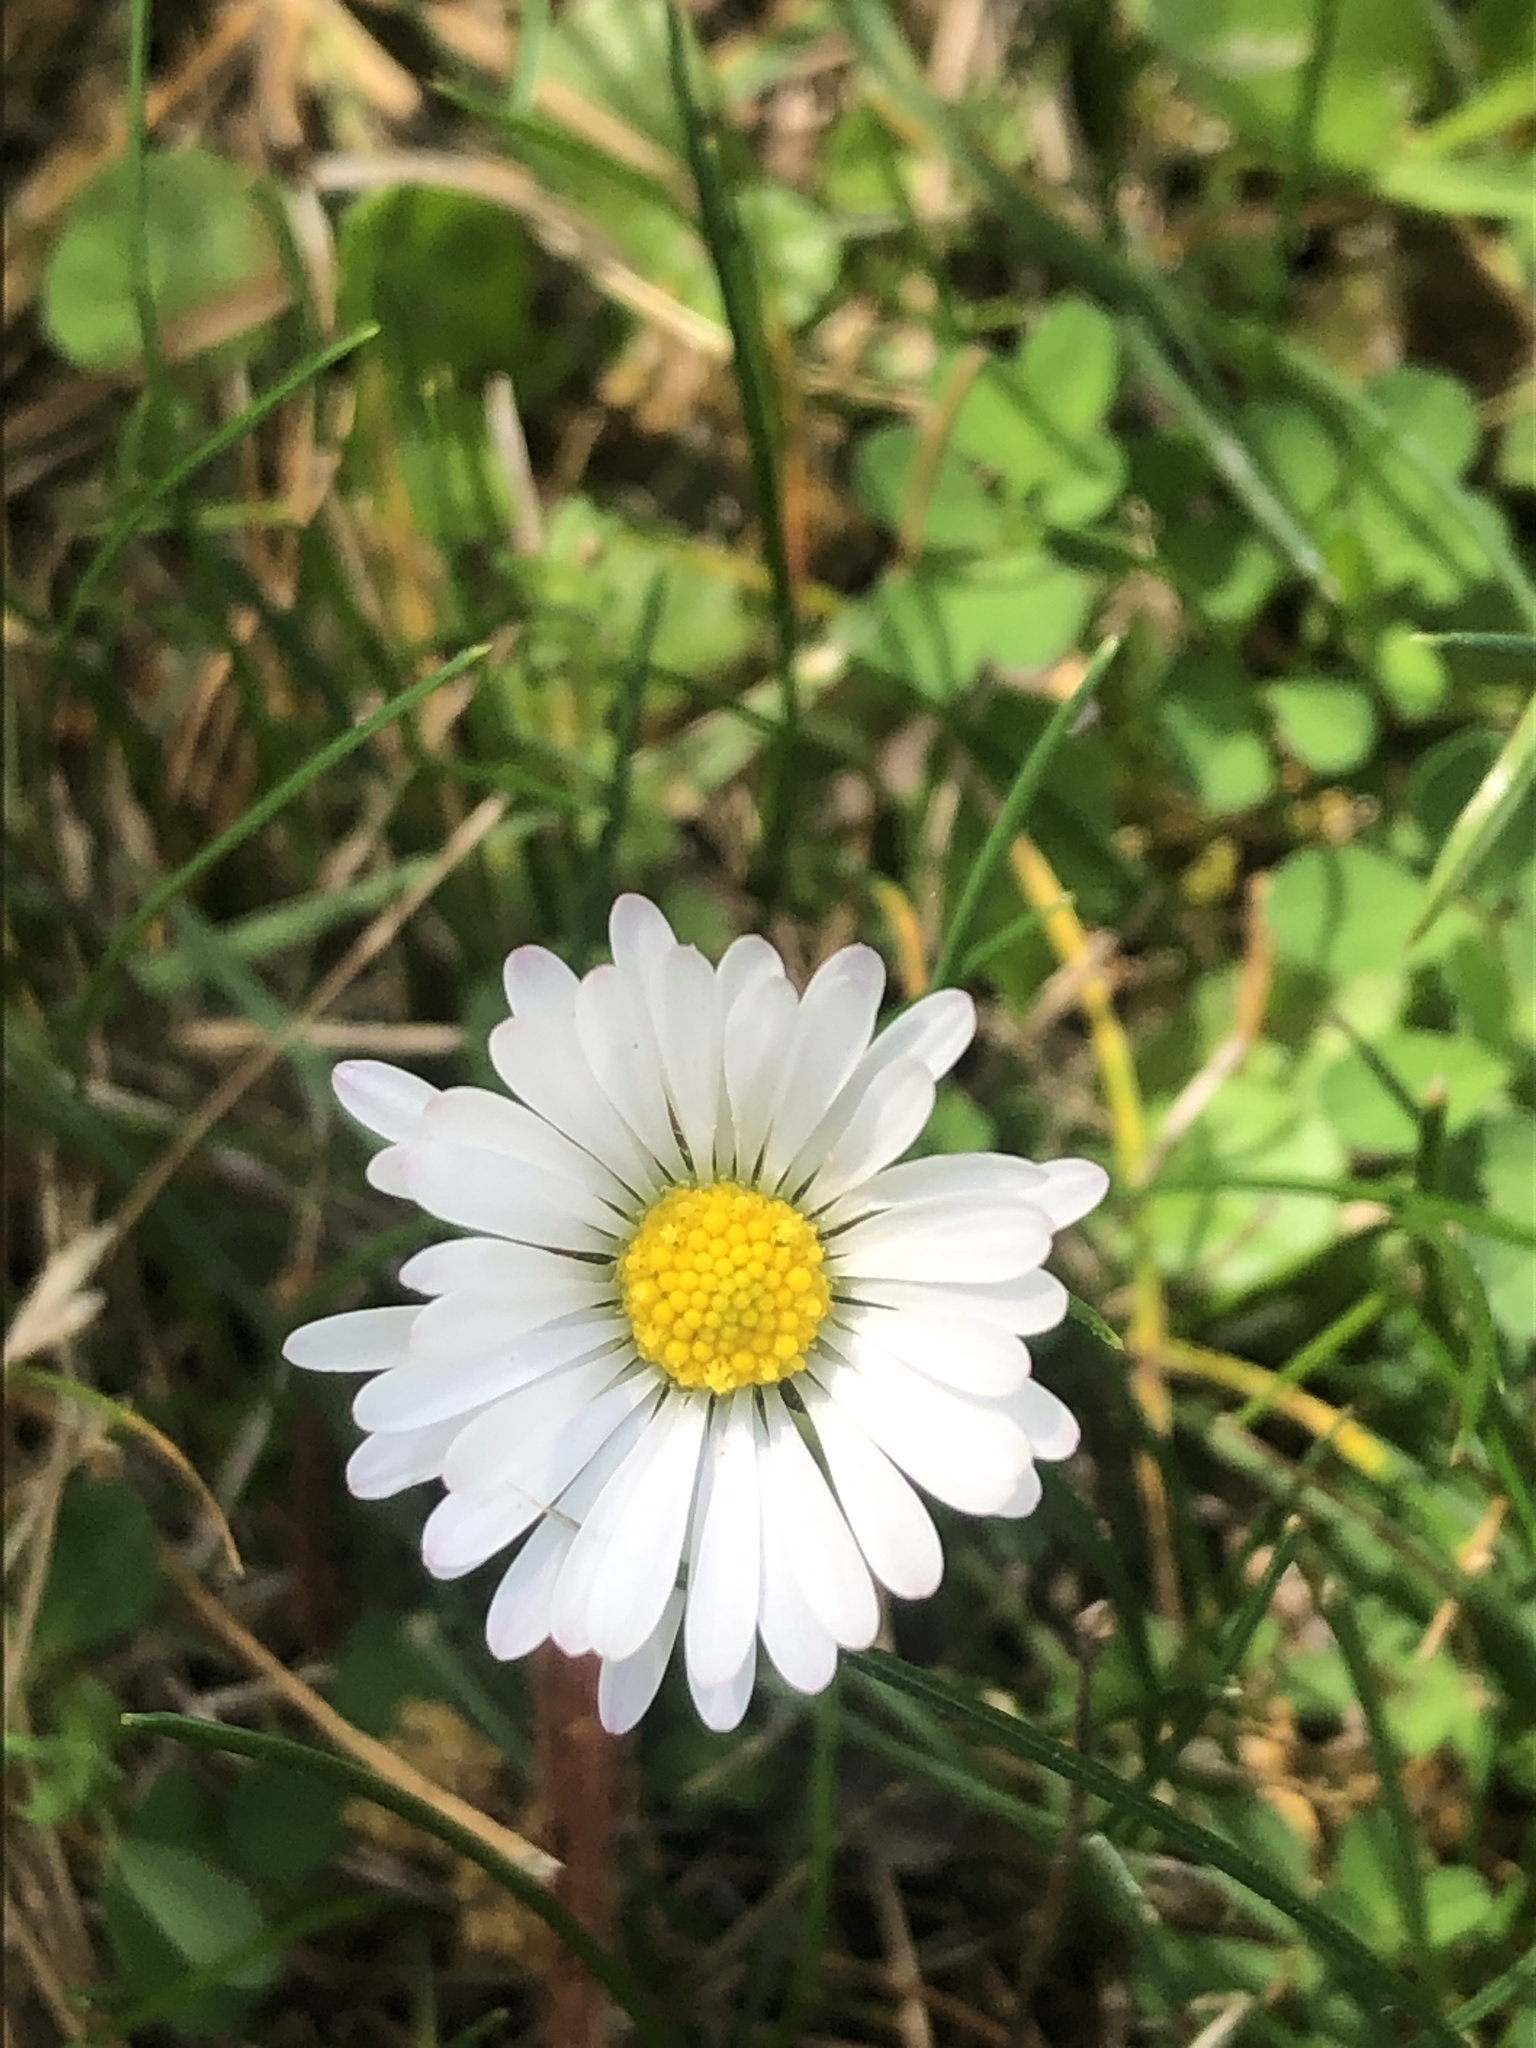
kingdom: Plantae
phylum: Tracheophyta
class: Magnoliopsida
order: Asterales
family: Asteraceae
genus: Bellis
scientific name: Bellis perennis
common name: Lawndaisy
